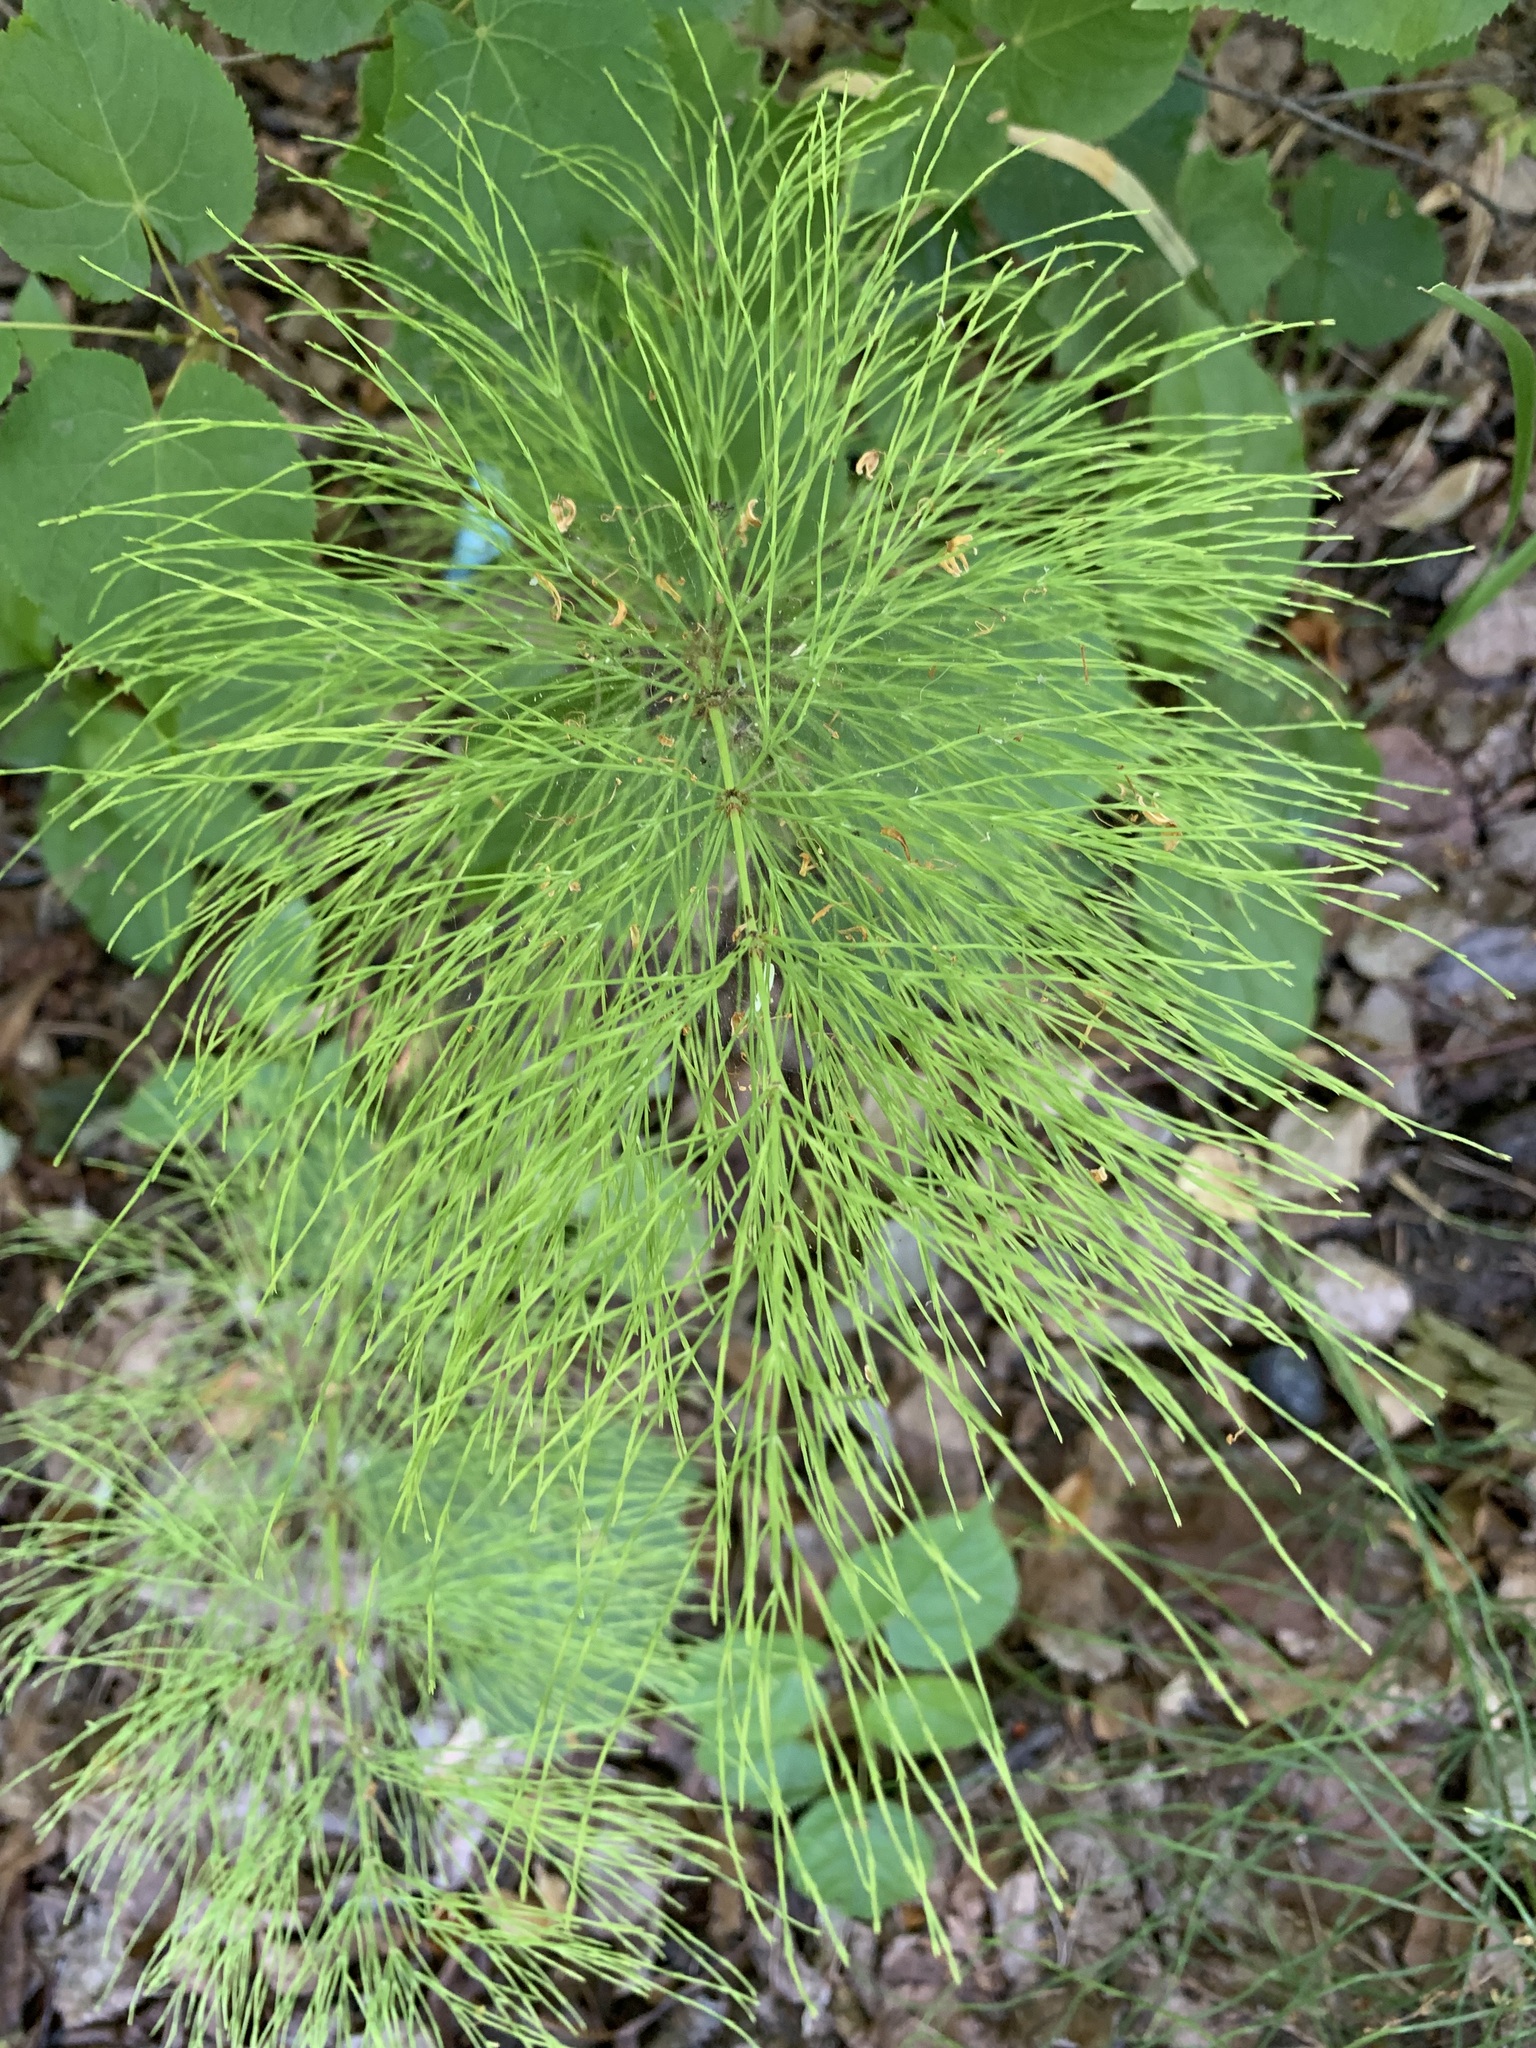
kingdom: Plantae
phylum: Tracheophyta
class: Polypodiopsida
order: Equisetales
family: Equisetaceae
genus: Equisetum
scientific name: Equisetum sylvaticum
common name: Wood horsetail
